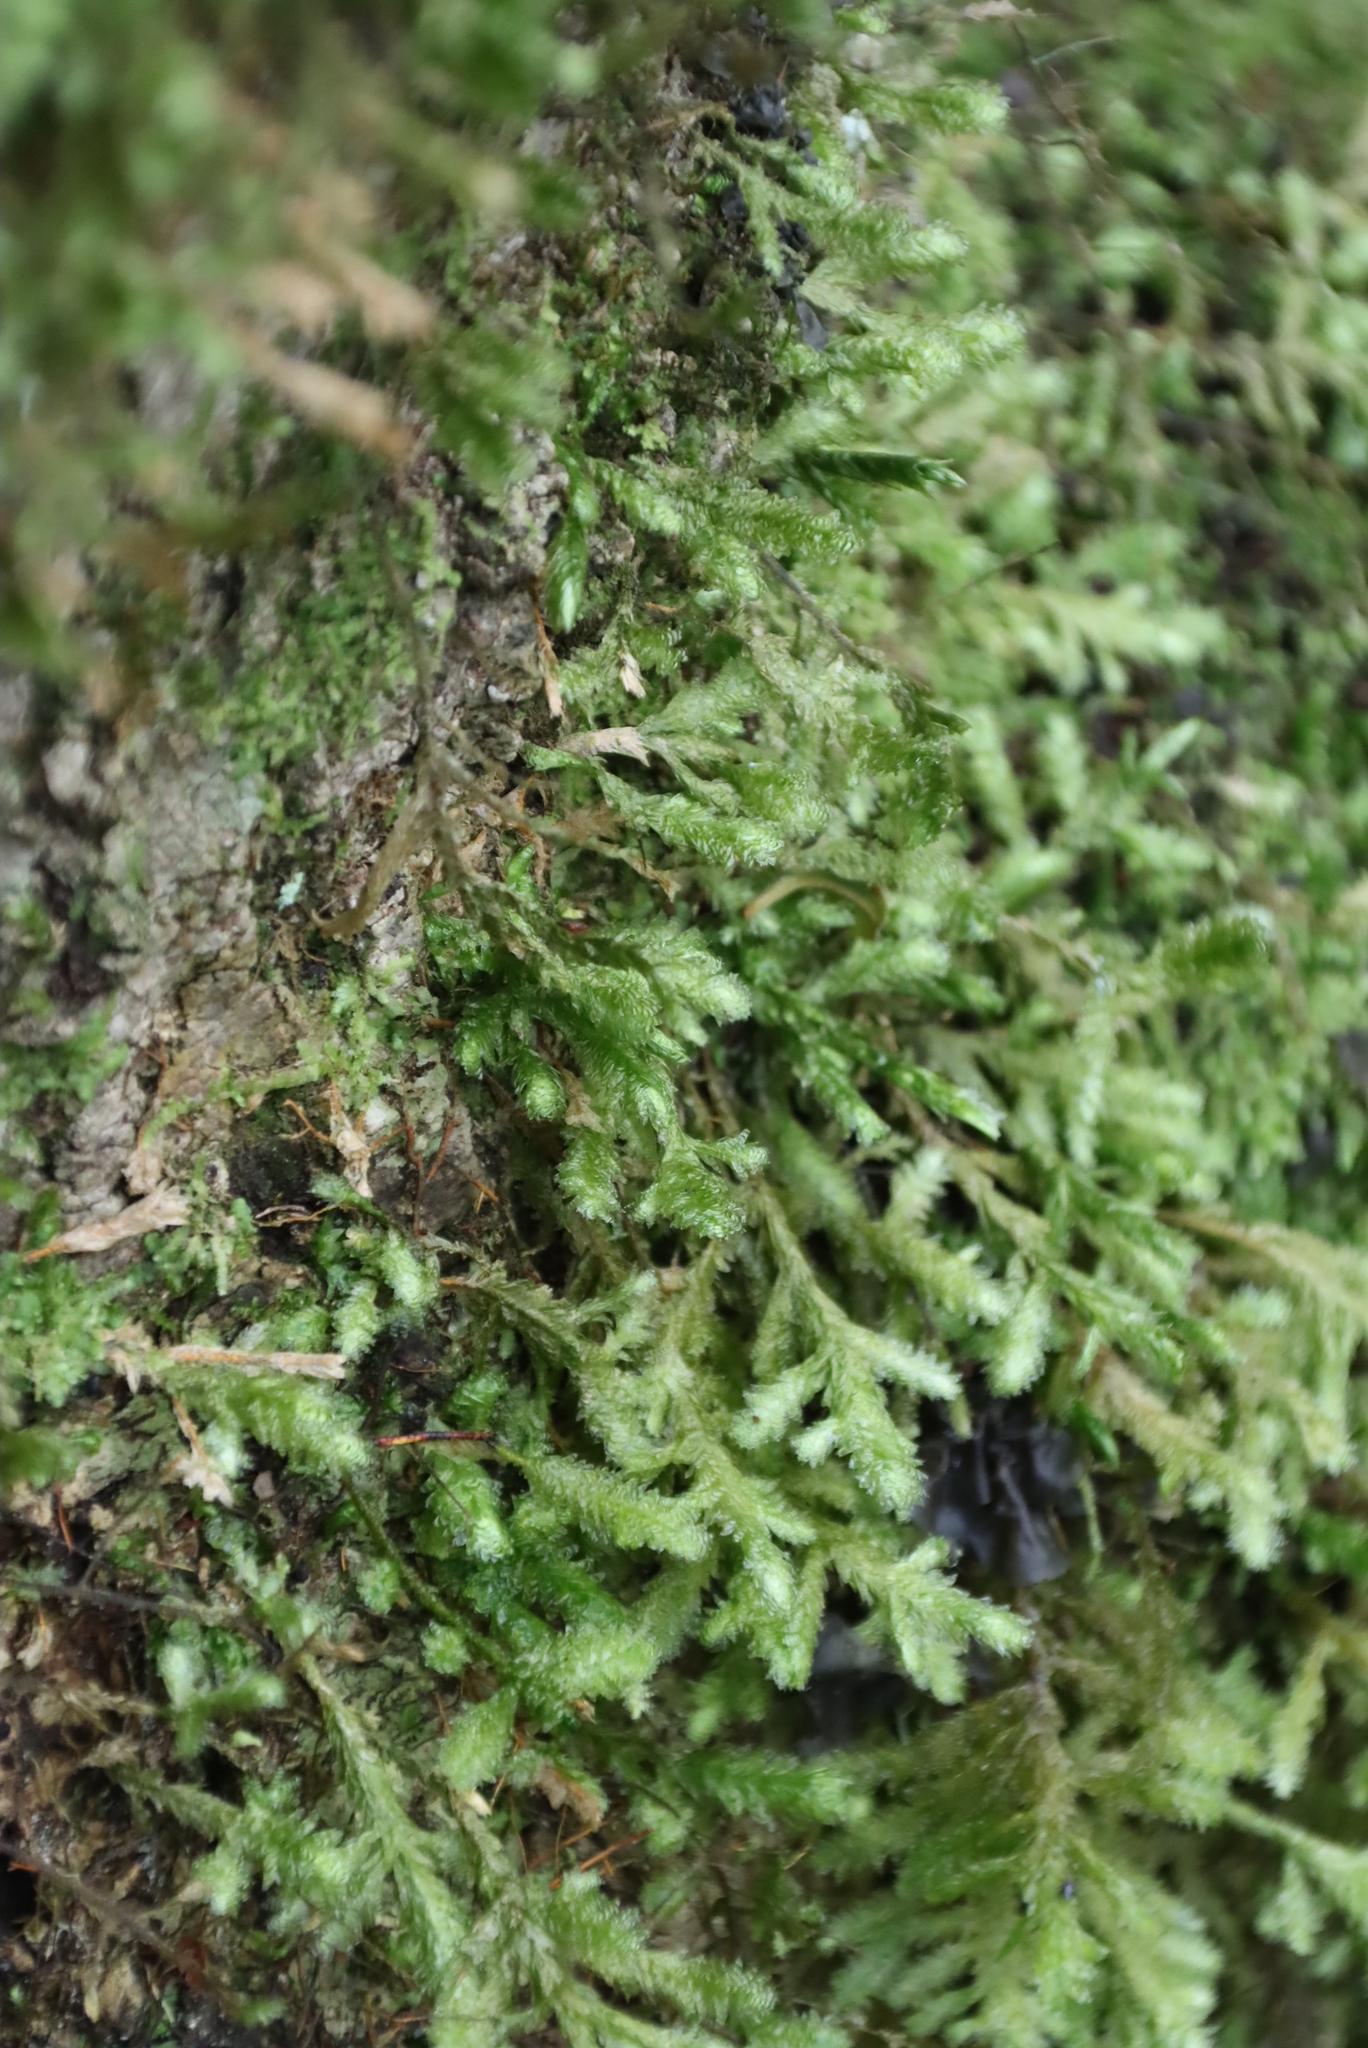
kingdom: Plantae
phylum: Bryophyta
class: Bryopsida
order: Hypnales
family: Neckeraceae
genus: Alleniella
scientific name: Alleniella ehrenbergii
